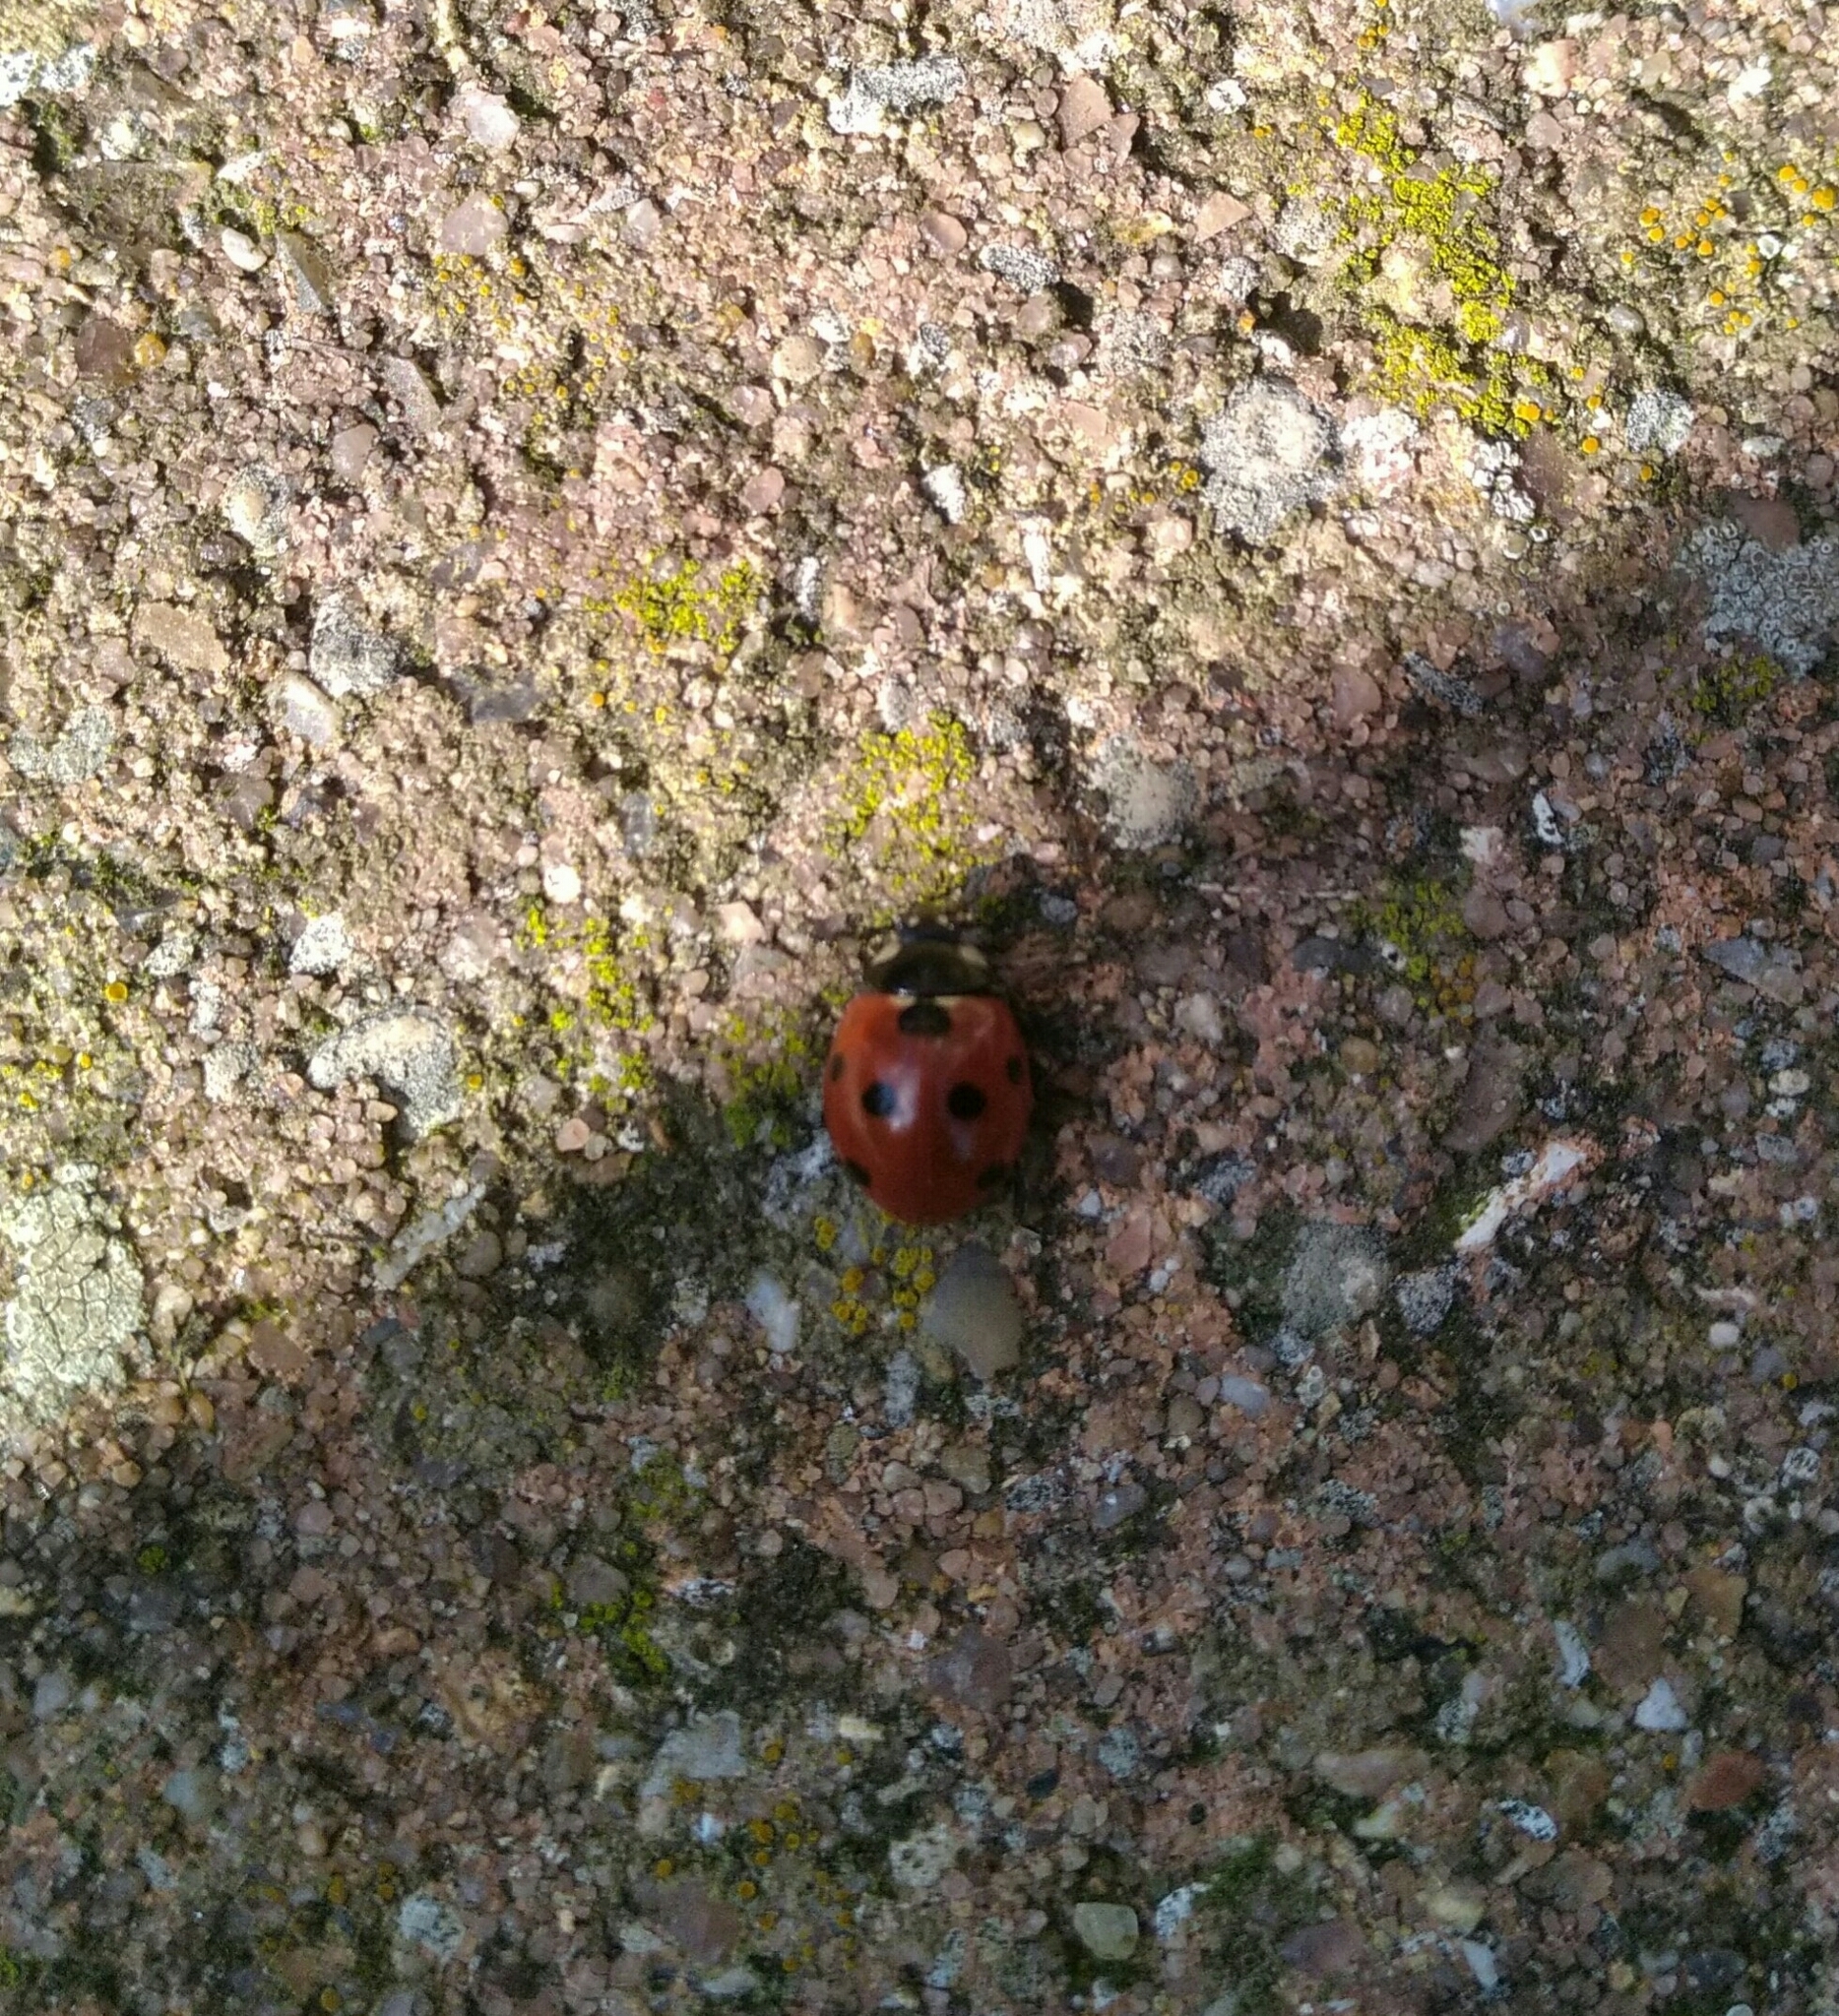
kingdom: Animalia
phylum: Arthropoda
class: Insecta
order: Coleoptera
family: Coccinellidae
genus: Coccinella
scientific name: Coccinella septempunctata
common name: Sevenspotted lady beetle
